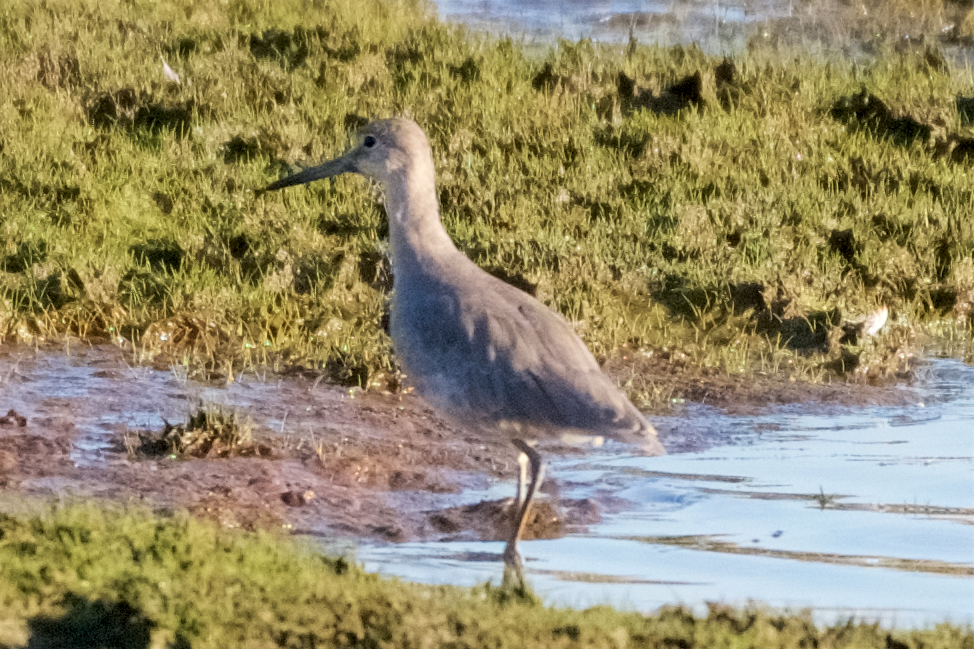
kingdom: Animalia
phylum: Chordata
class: Aves
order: Charadriiformes
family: Scolopacidae
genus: Tringa
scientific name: Tringa semipalmata
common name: Willet
